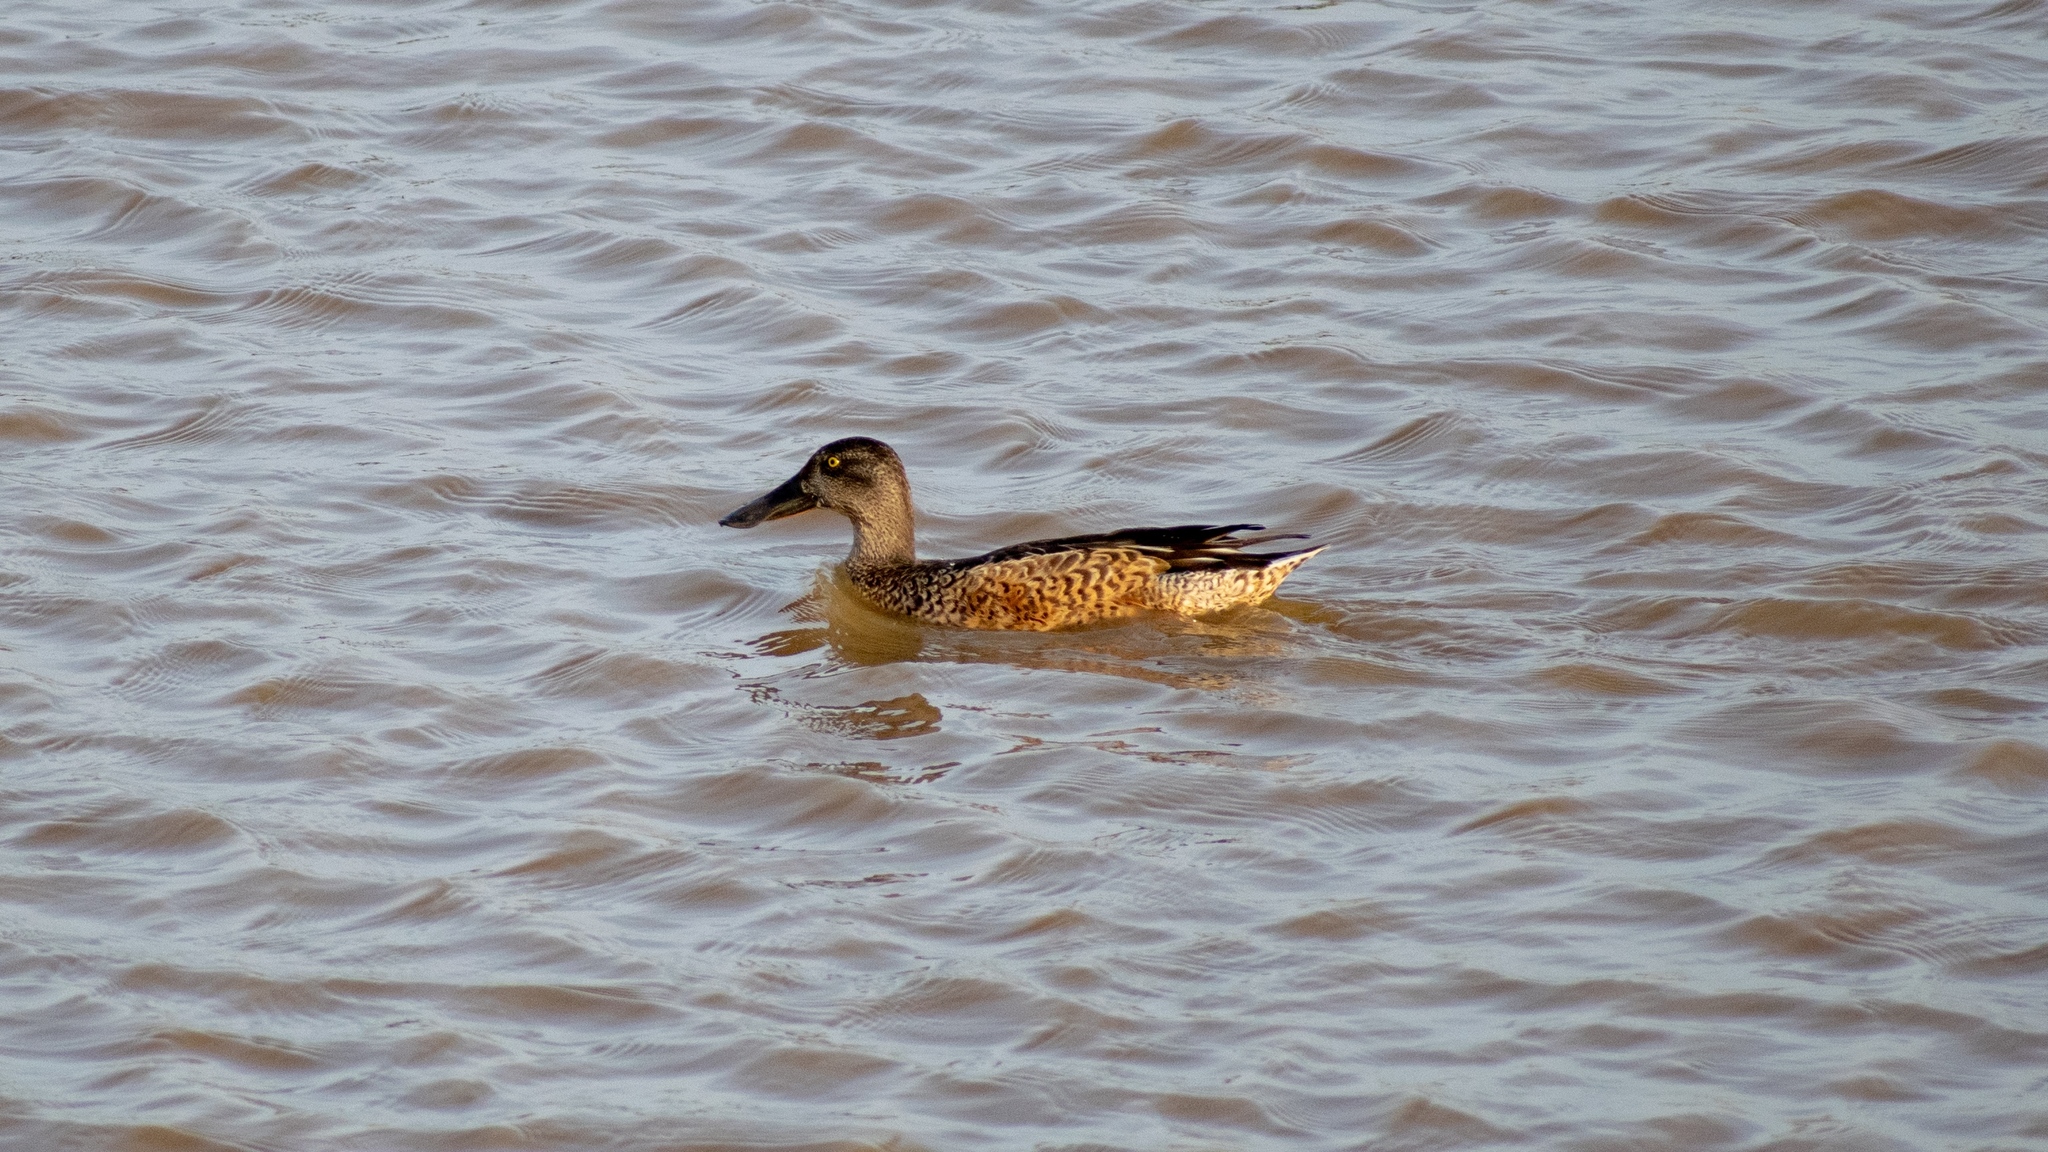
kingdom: Animalia
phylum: Chordata
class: Aves
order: Anseriformes
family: Anatidae
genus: Spatula
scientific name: Spatula clypeata
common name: Northern shoveler
